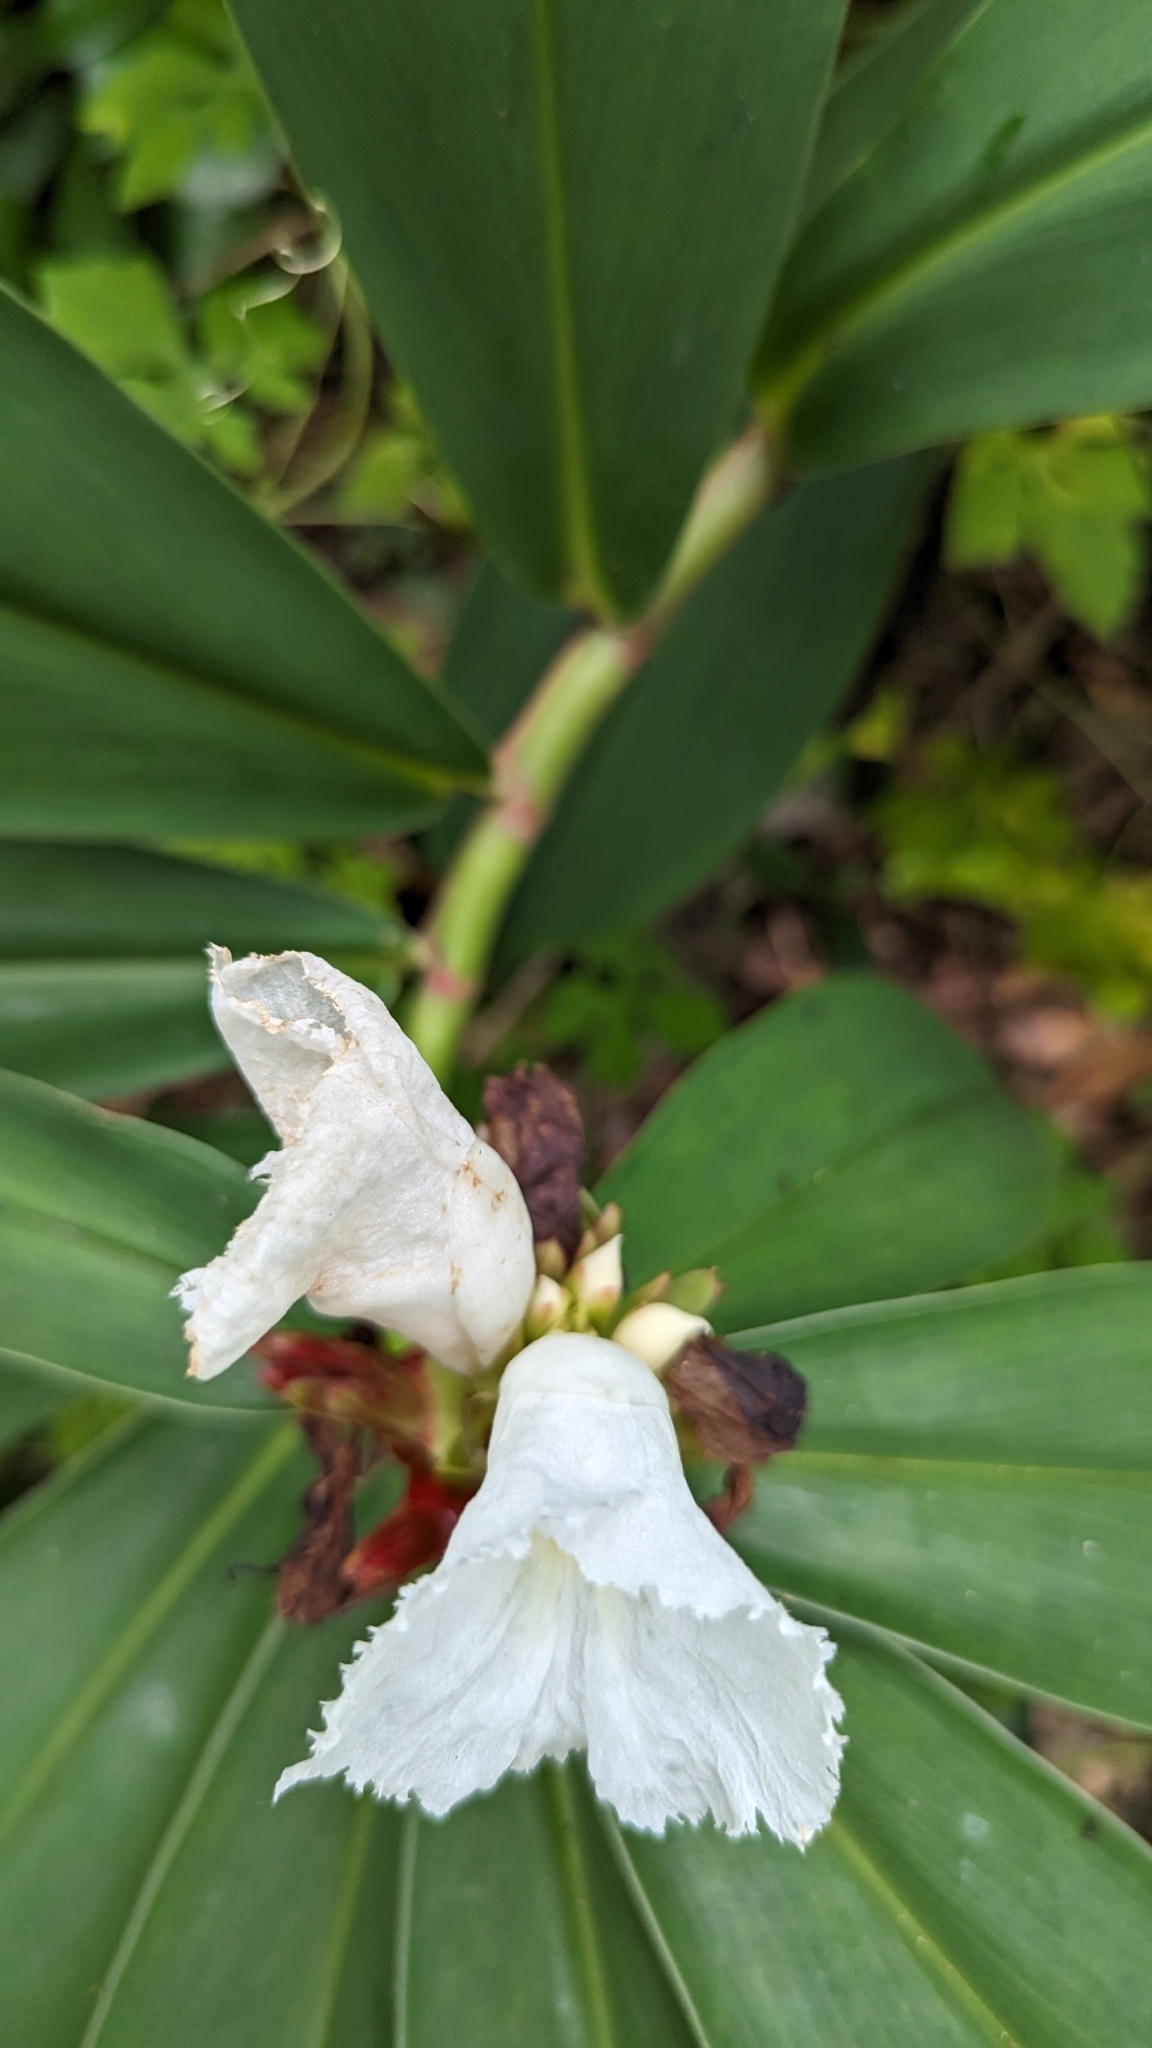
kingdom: Plantae
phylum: Tracheophyta
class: Liliopsida
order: Zingiberales
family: Costaceae
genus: Hellenia
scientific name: Hellenia speciosa
